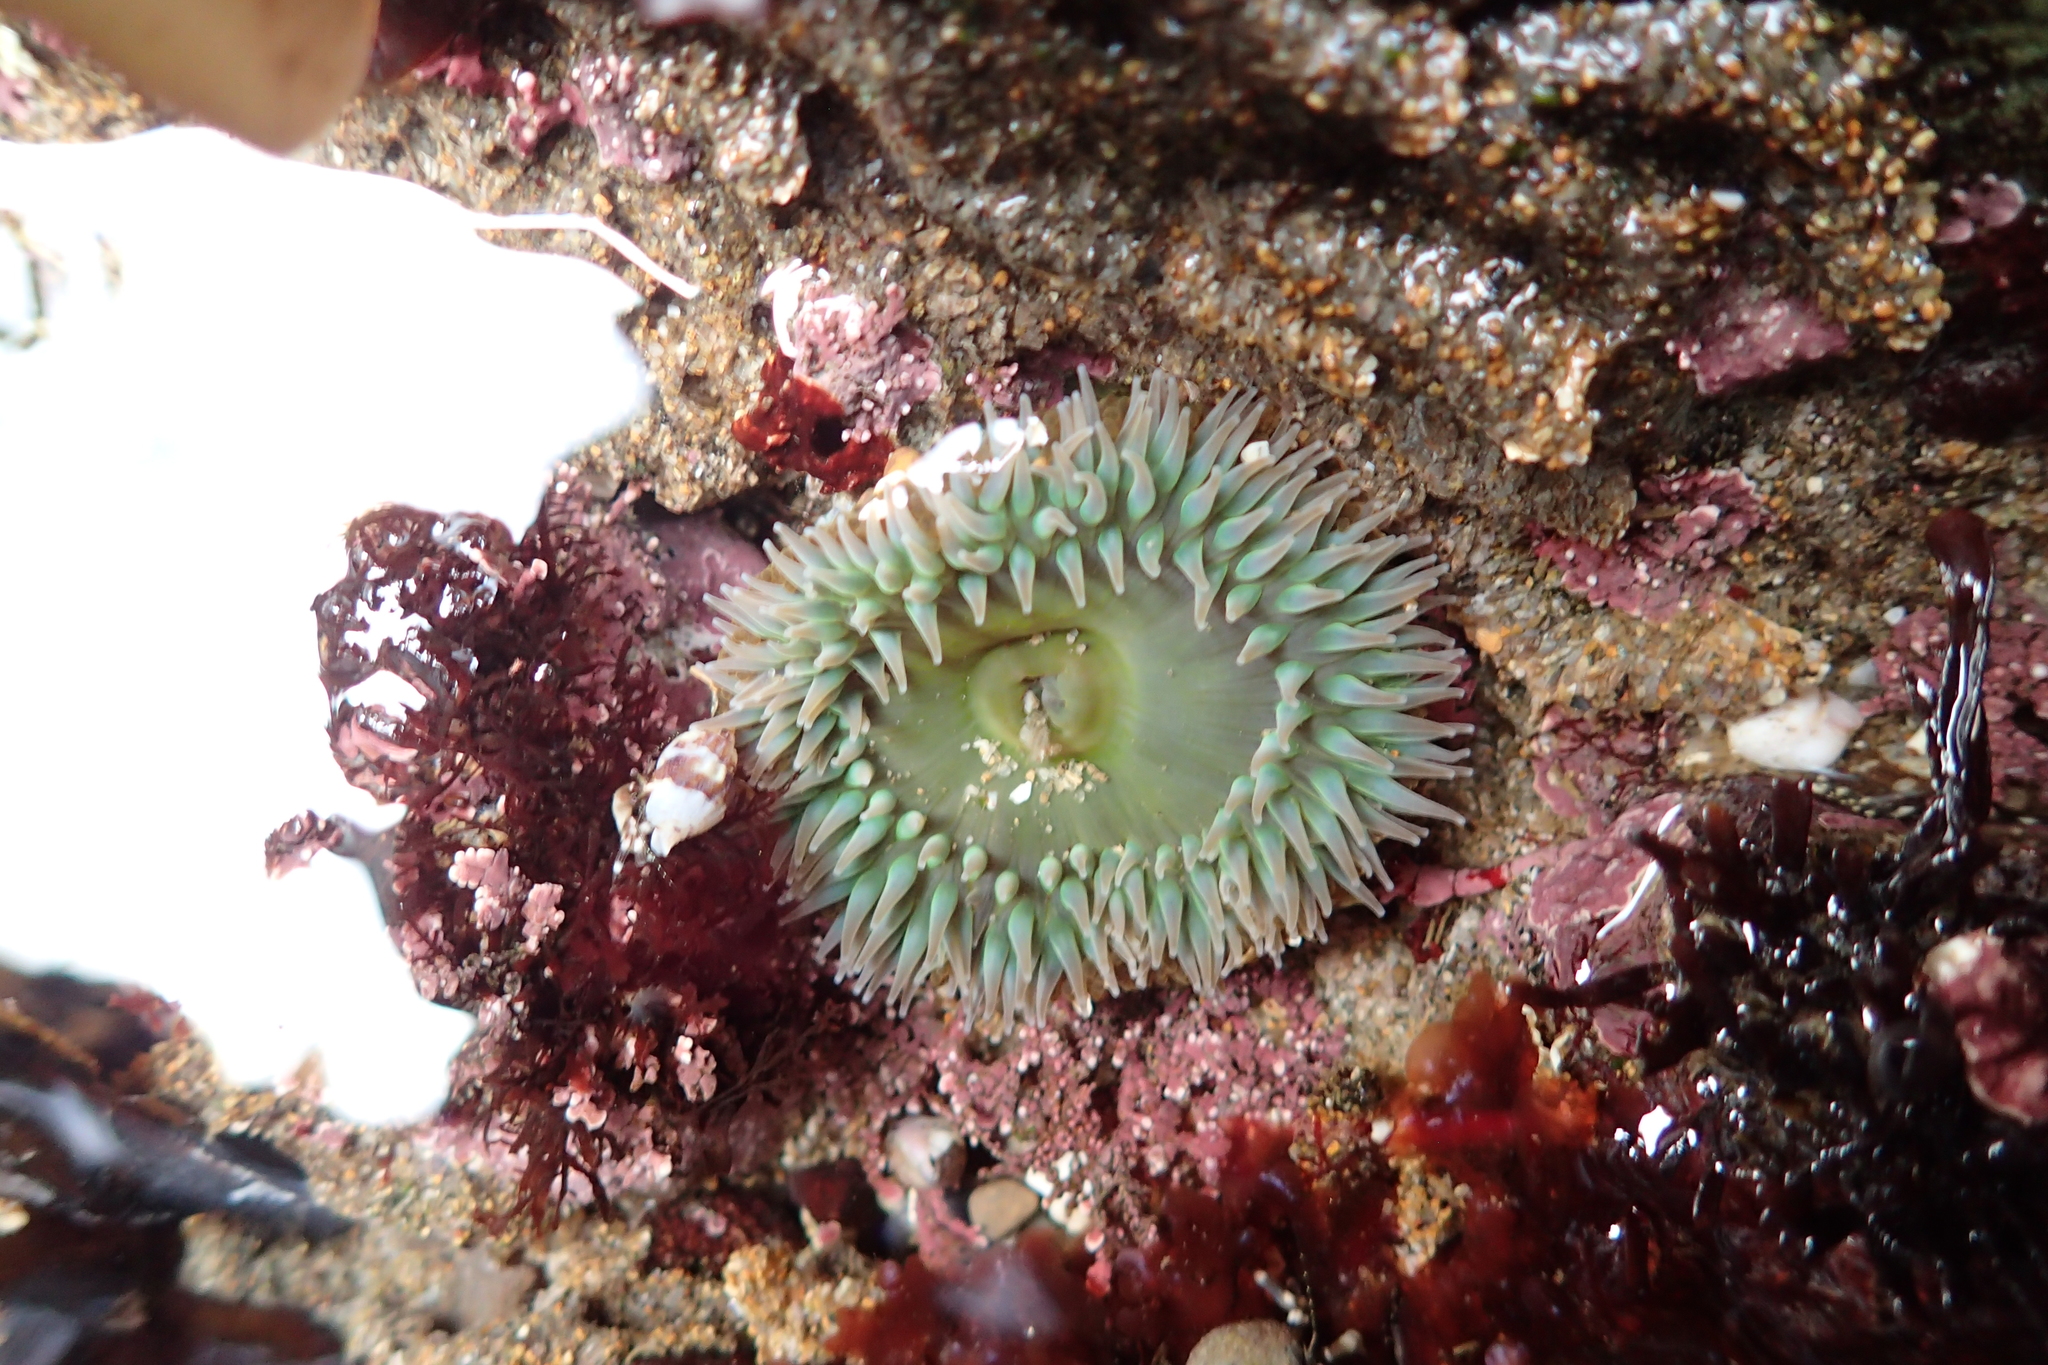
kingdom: Animalia
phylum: Cnidaria
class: Anthozoa
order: Actiniaria
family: Actiniidae
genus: Anthopleura
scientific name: Anthopleura xanthogrammica
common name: Giant green anemone
